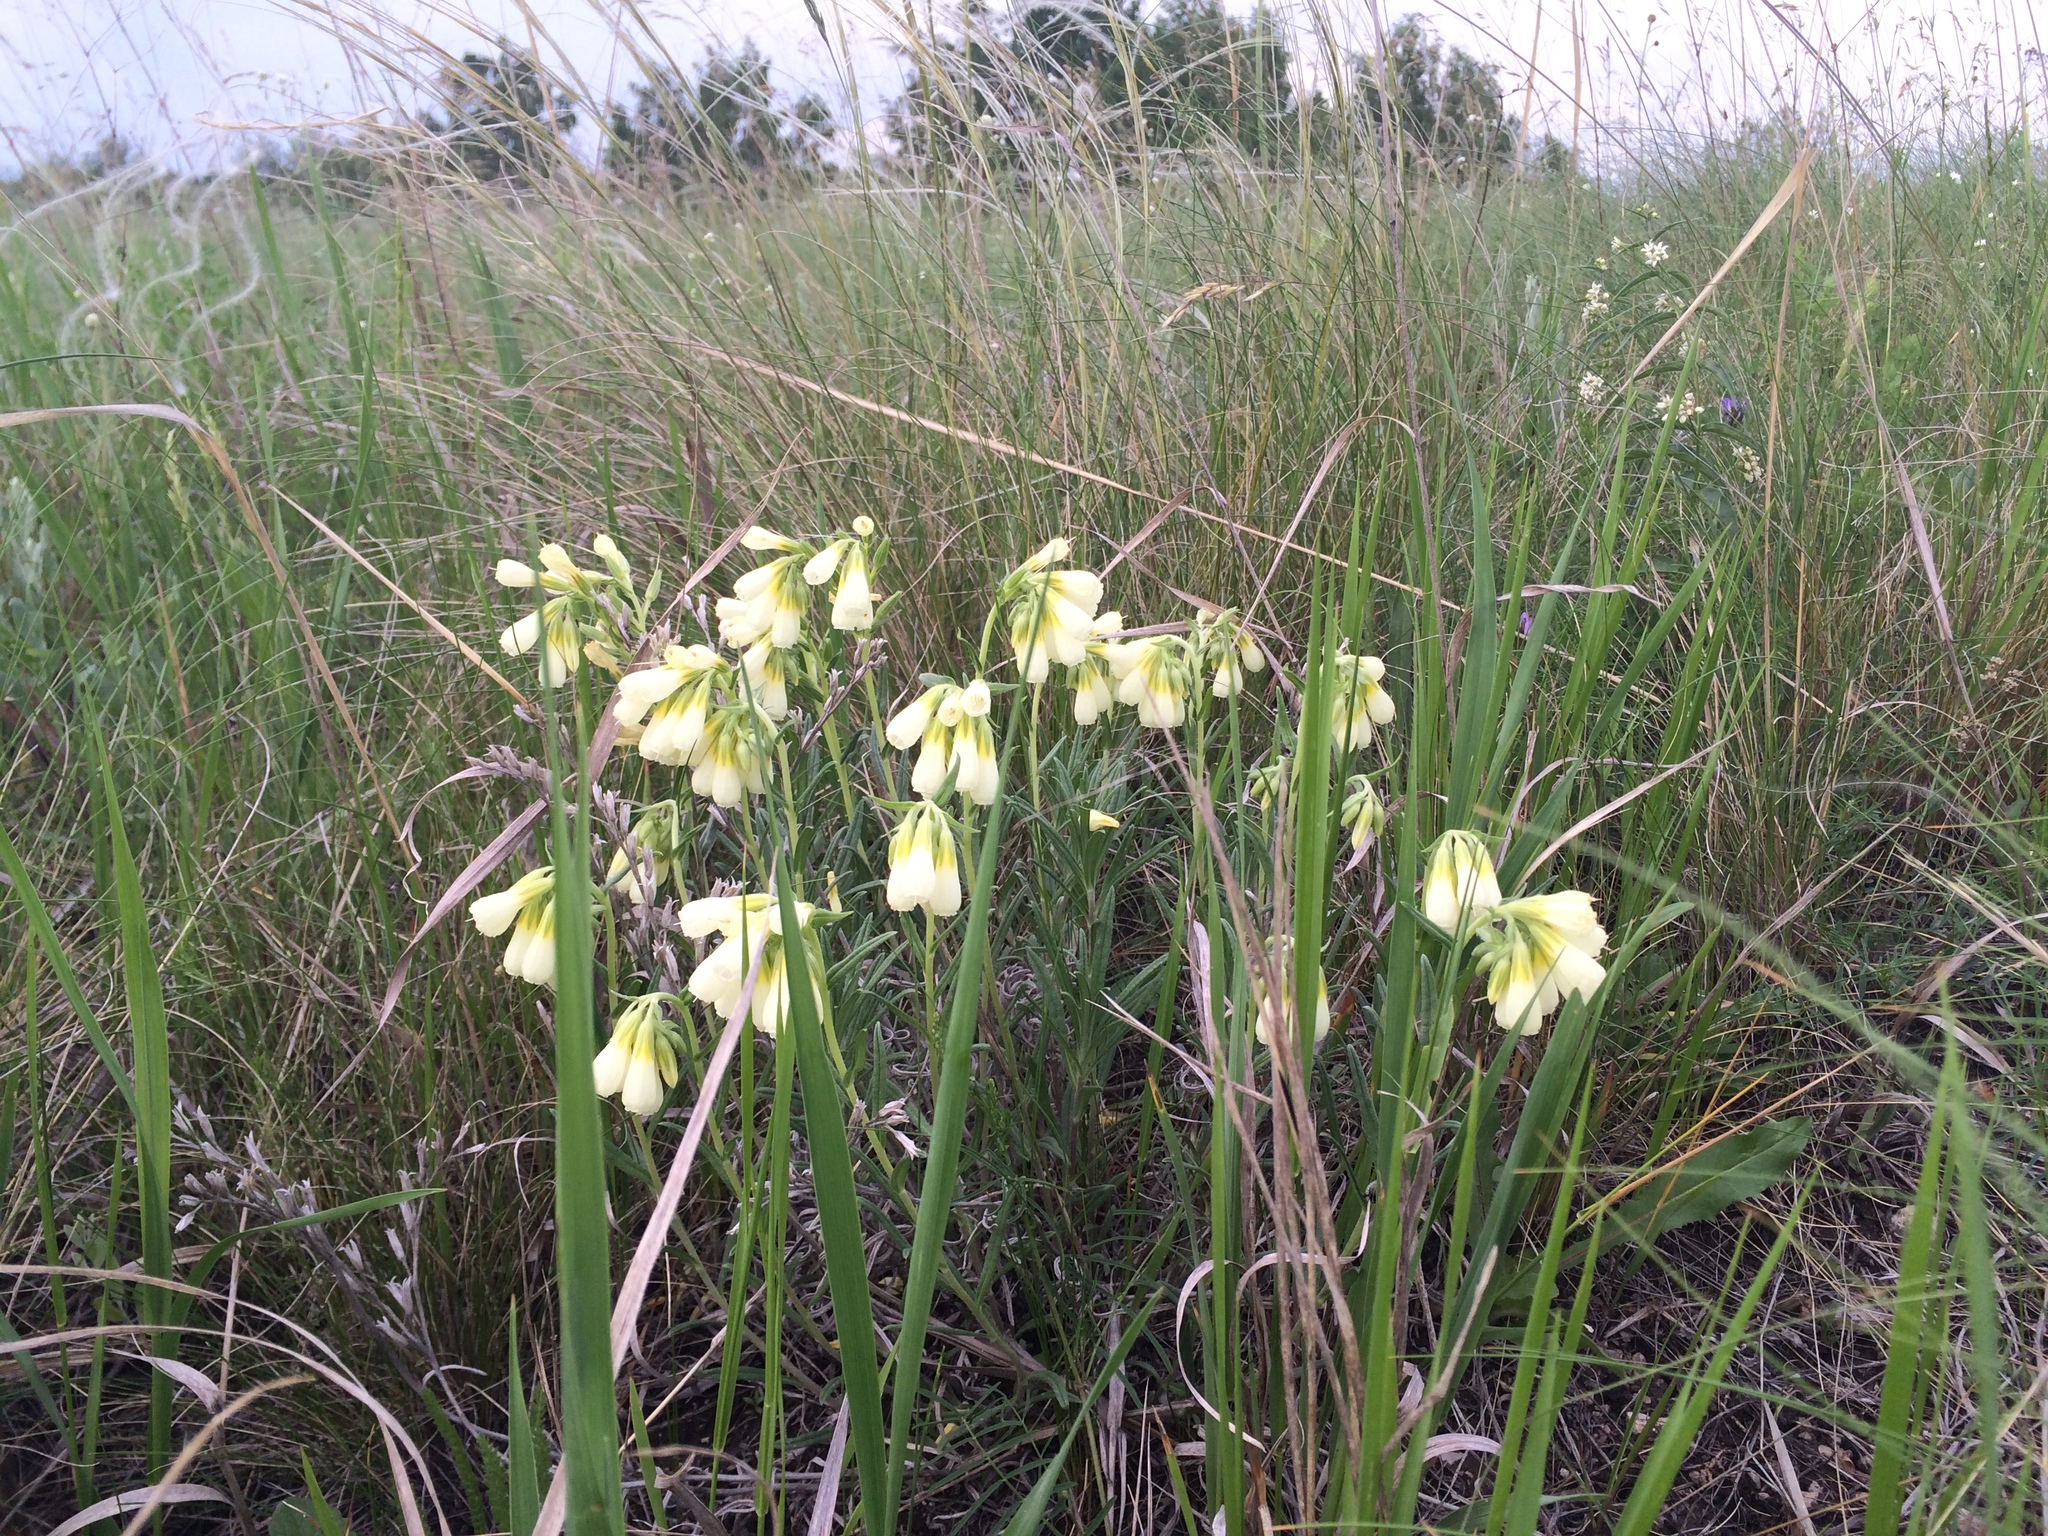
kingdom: Plantae
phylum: Tracheophyta
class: Magnoliopsida
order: Boraginales
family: Boraginaceae
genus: Onosma
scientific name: Onosma simplicissima
